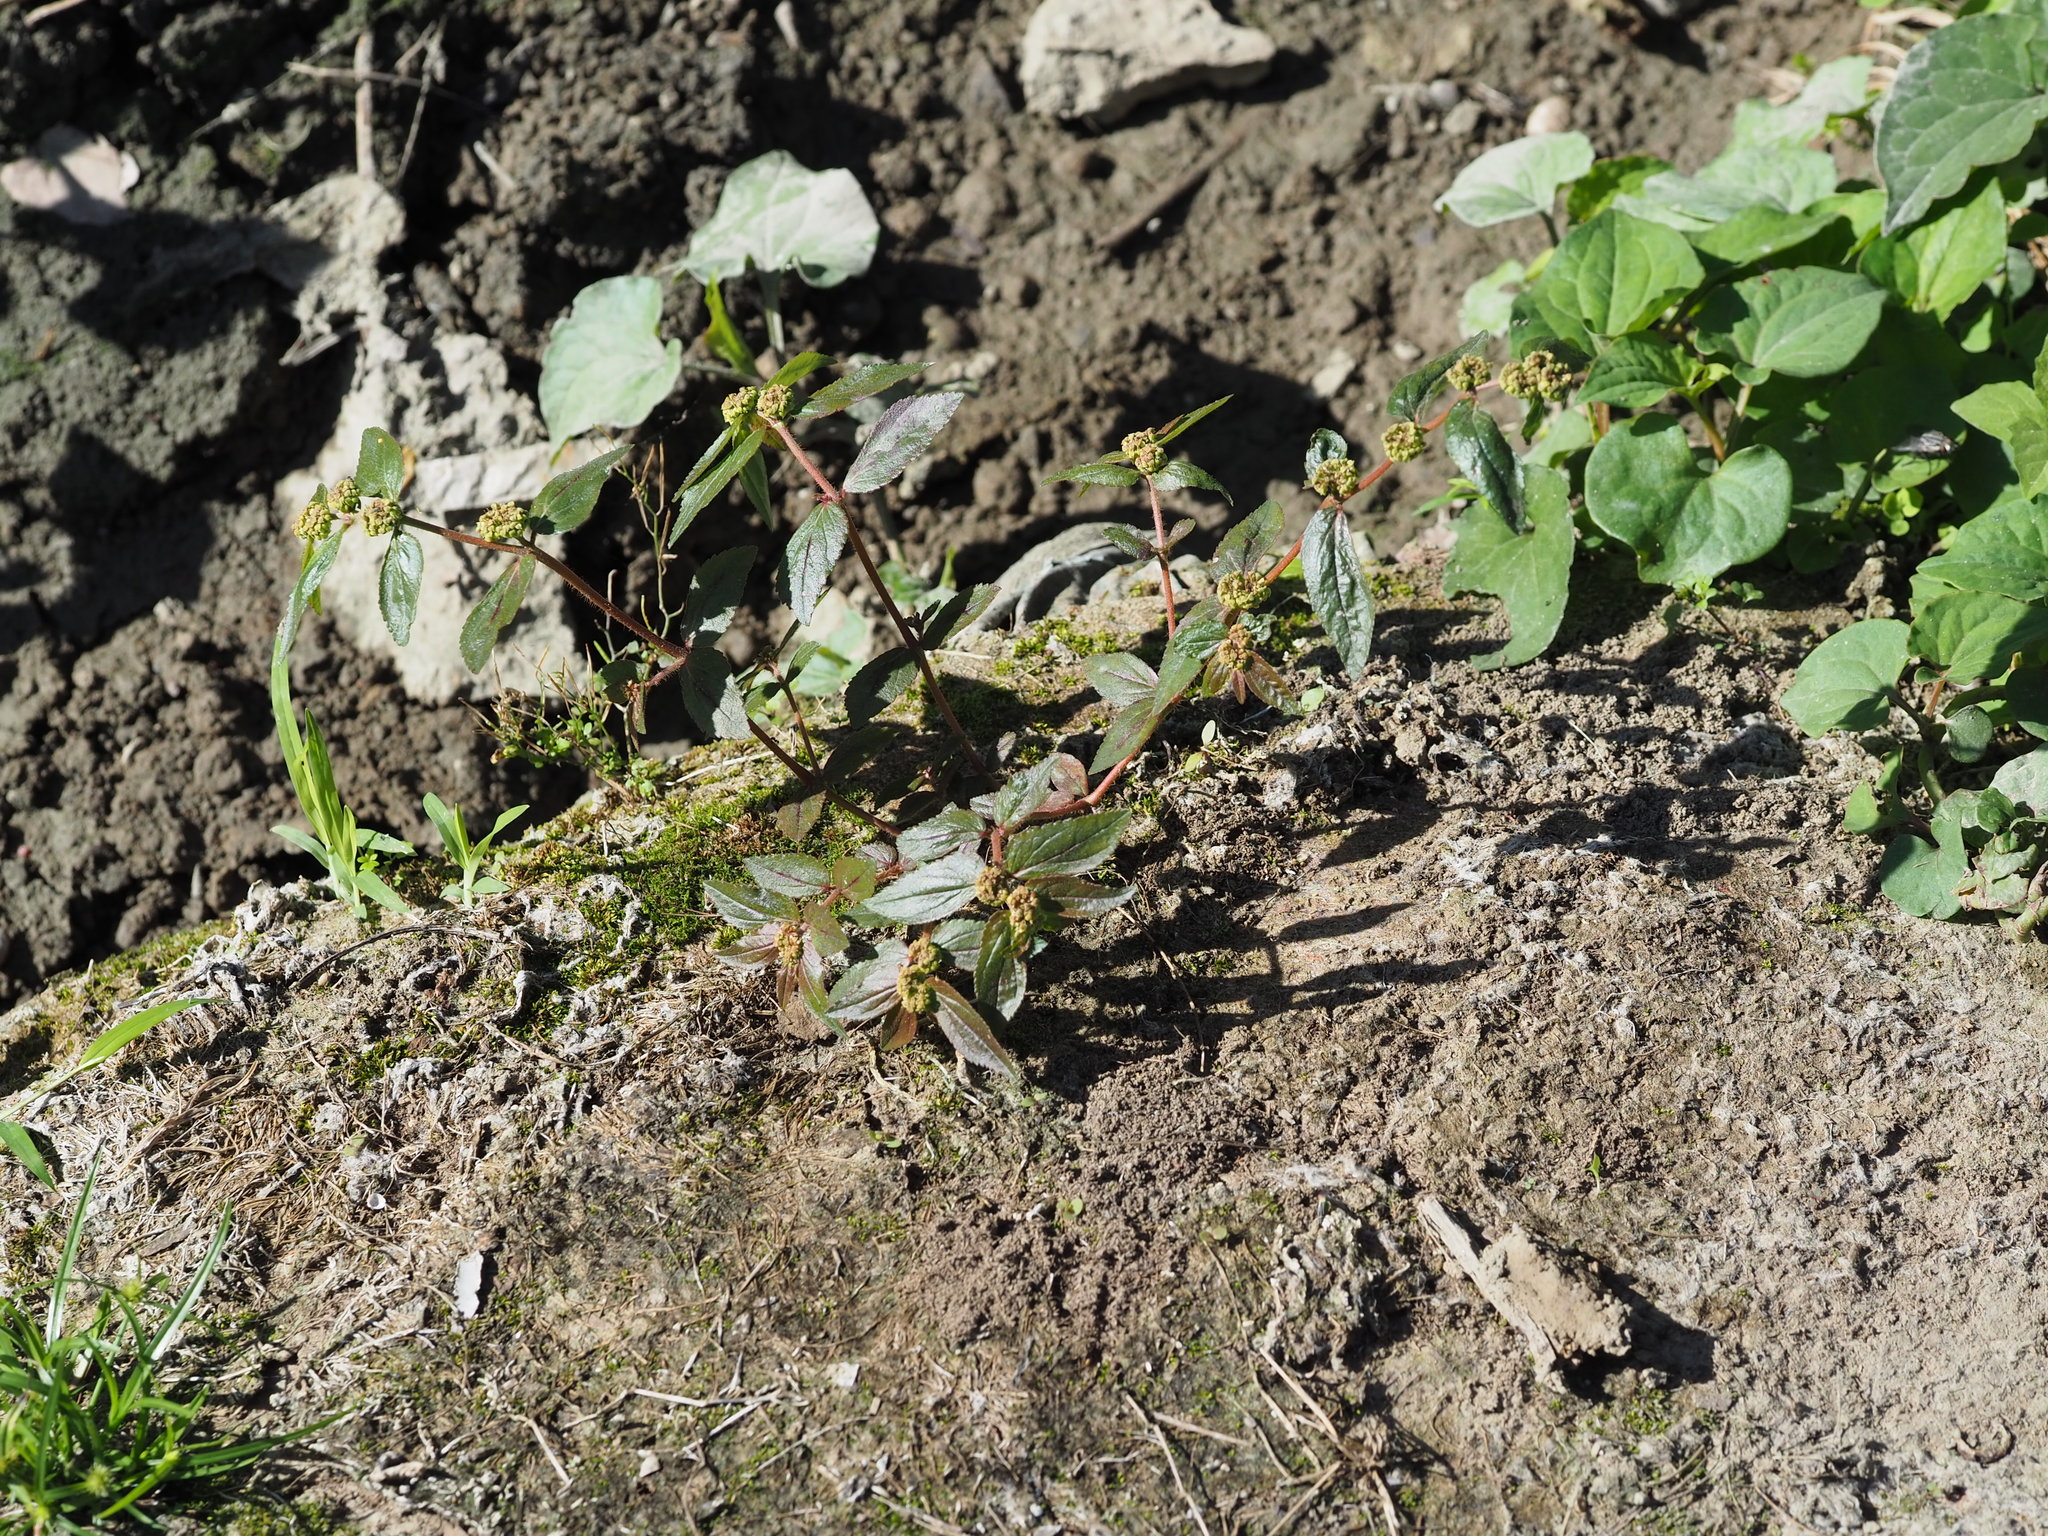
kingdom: Plantae
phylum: Tracheophyta
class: Magnoliopsida
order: Malpighiales
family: Euphorbiaceae
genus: Euphorbia
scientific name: Euphorbia hirta
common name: Pillpod sandmat
